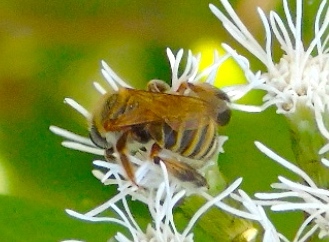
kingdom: Animalia
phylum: Arthropoda
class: Insecta
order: Hymenoptera
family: Apidae
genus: Exomalopsis
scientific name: Exomalopsis
